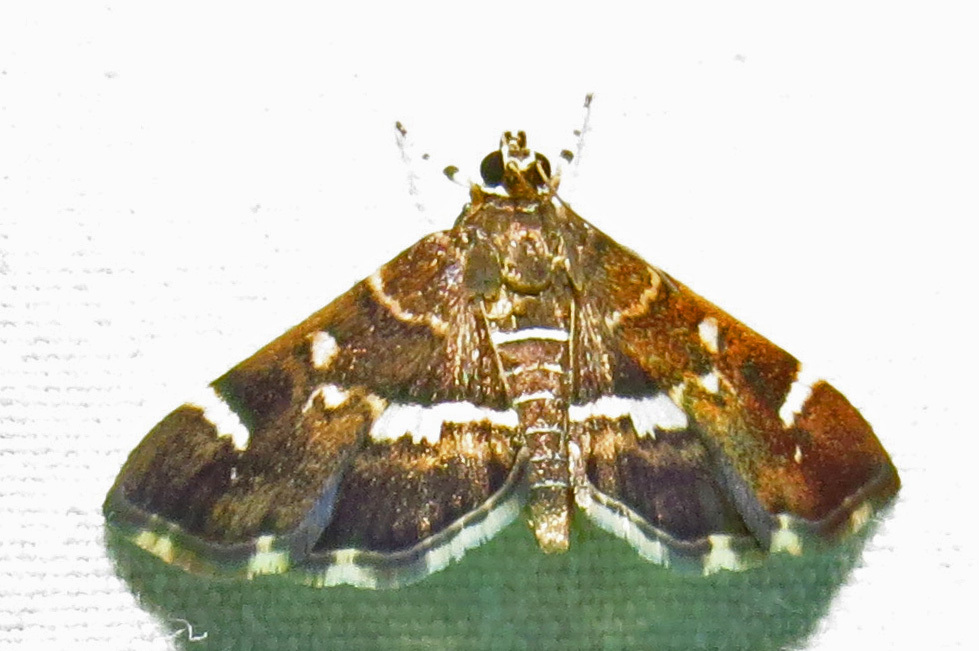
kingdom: Animalia
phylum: Arthropoda
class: Insecta
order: Lepidoptera
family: Crambidae
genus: Hymenia
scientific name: Hymenia perspectalis
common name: Spotted beet webworm
